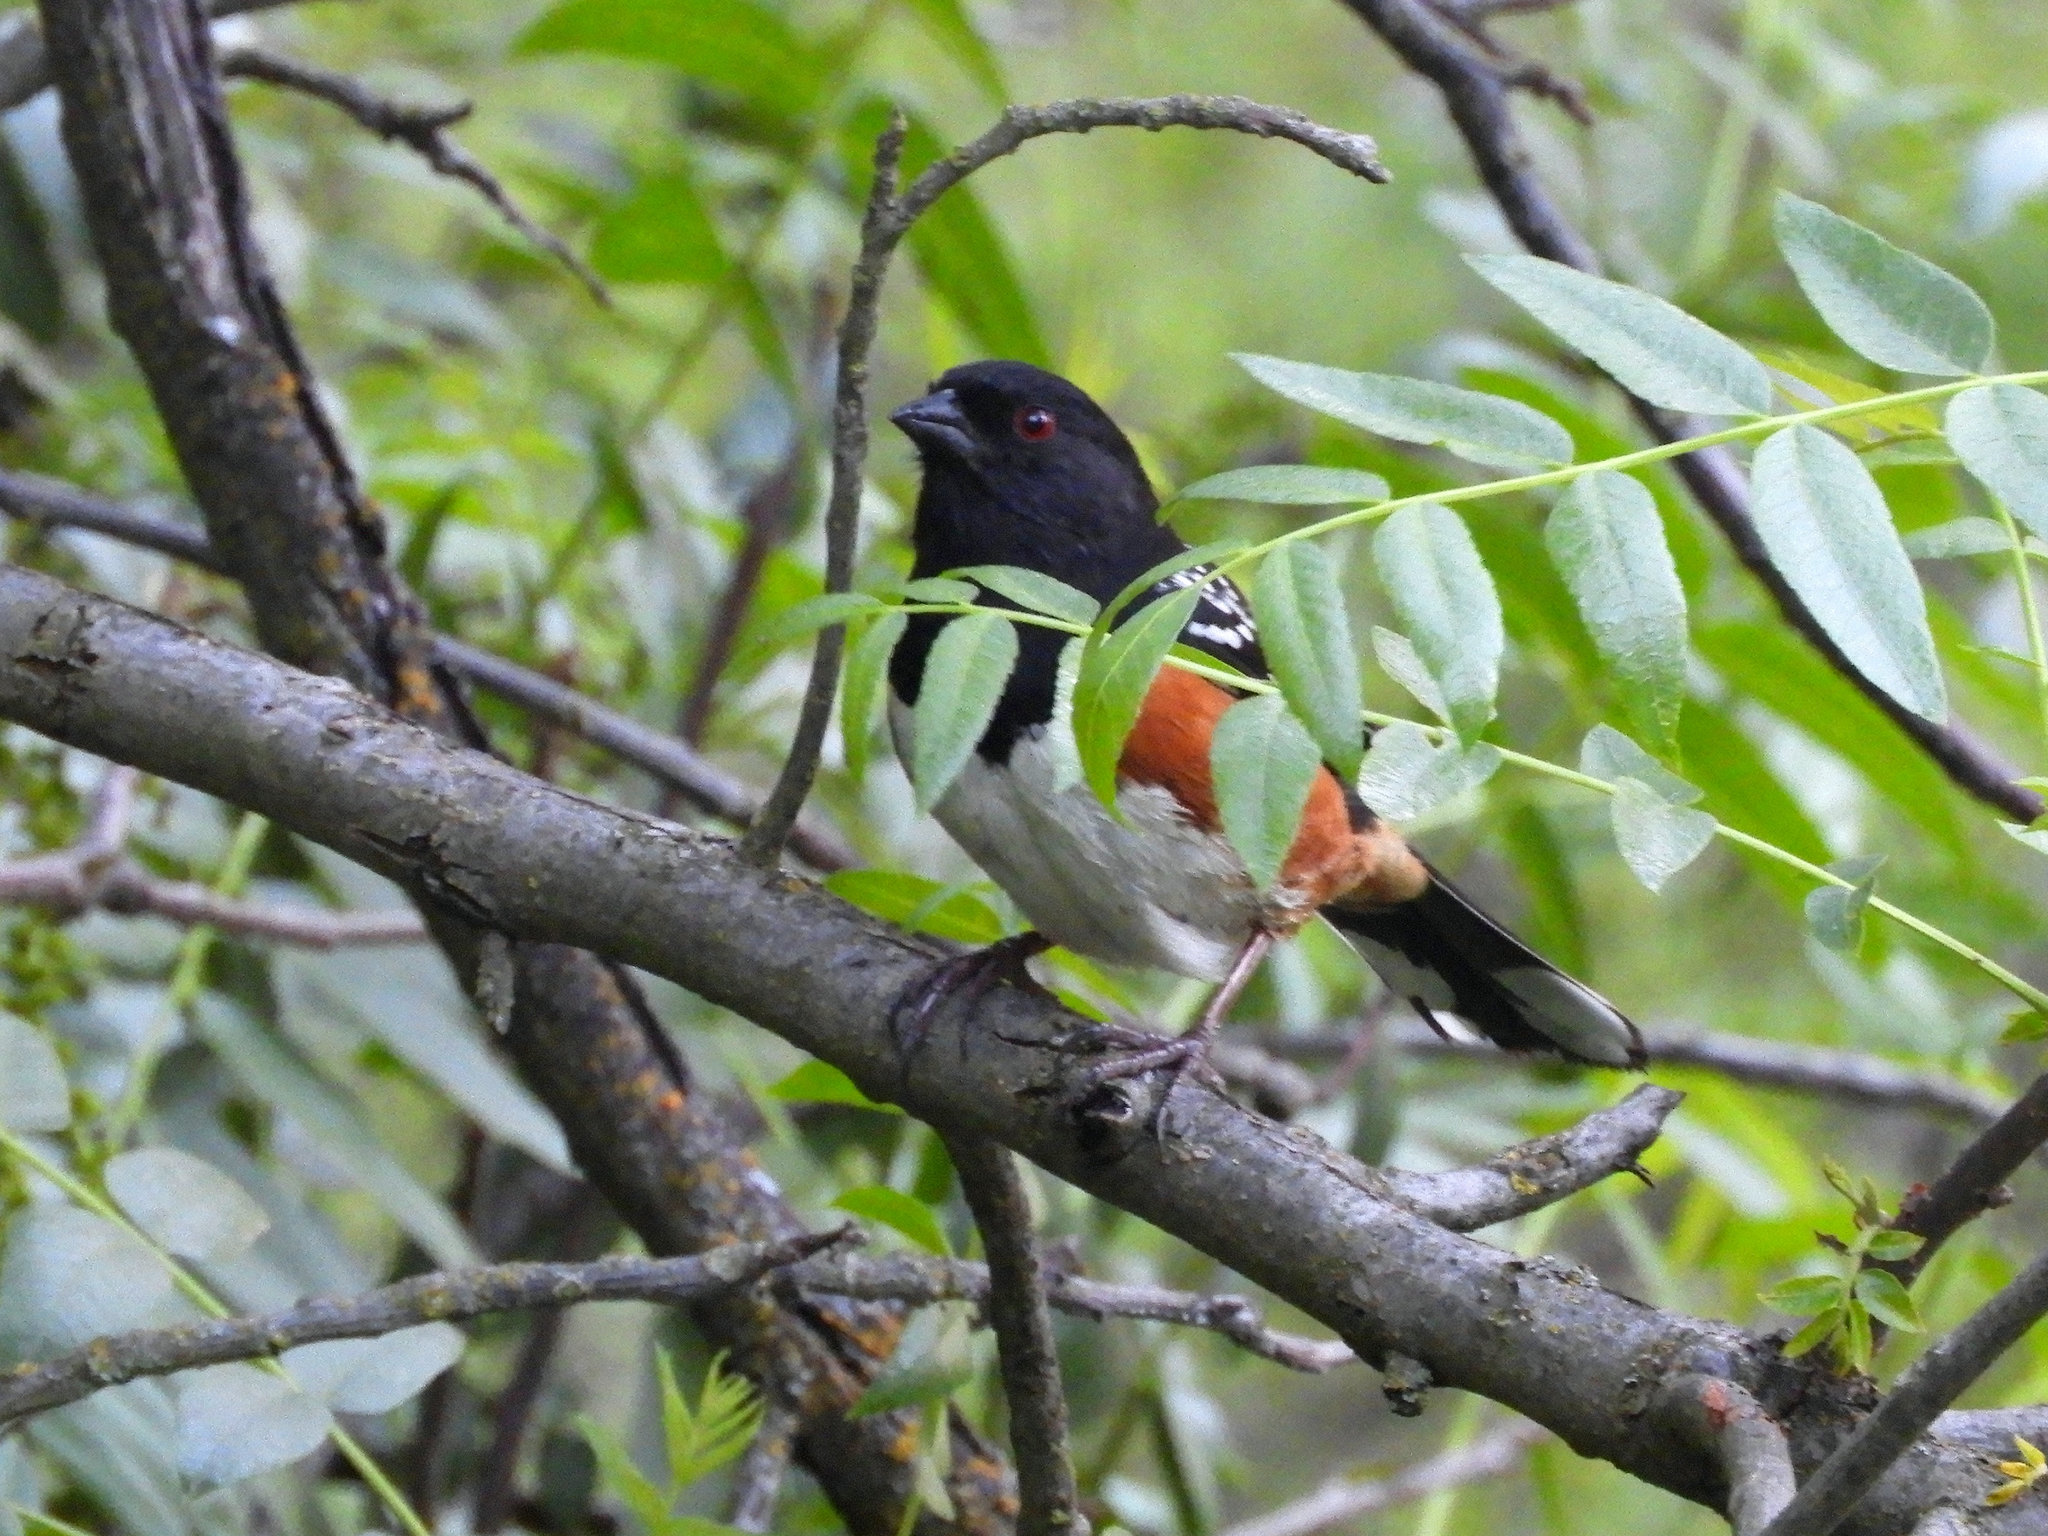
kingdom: Animalia
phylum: Chordata
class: Aves
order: Passeriformes
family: Passerellidae
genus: Pipilo
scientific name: Pipilo maculatus
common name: Spotted towhee
